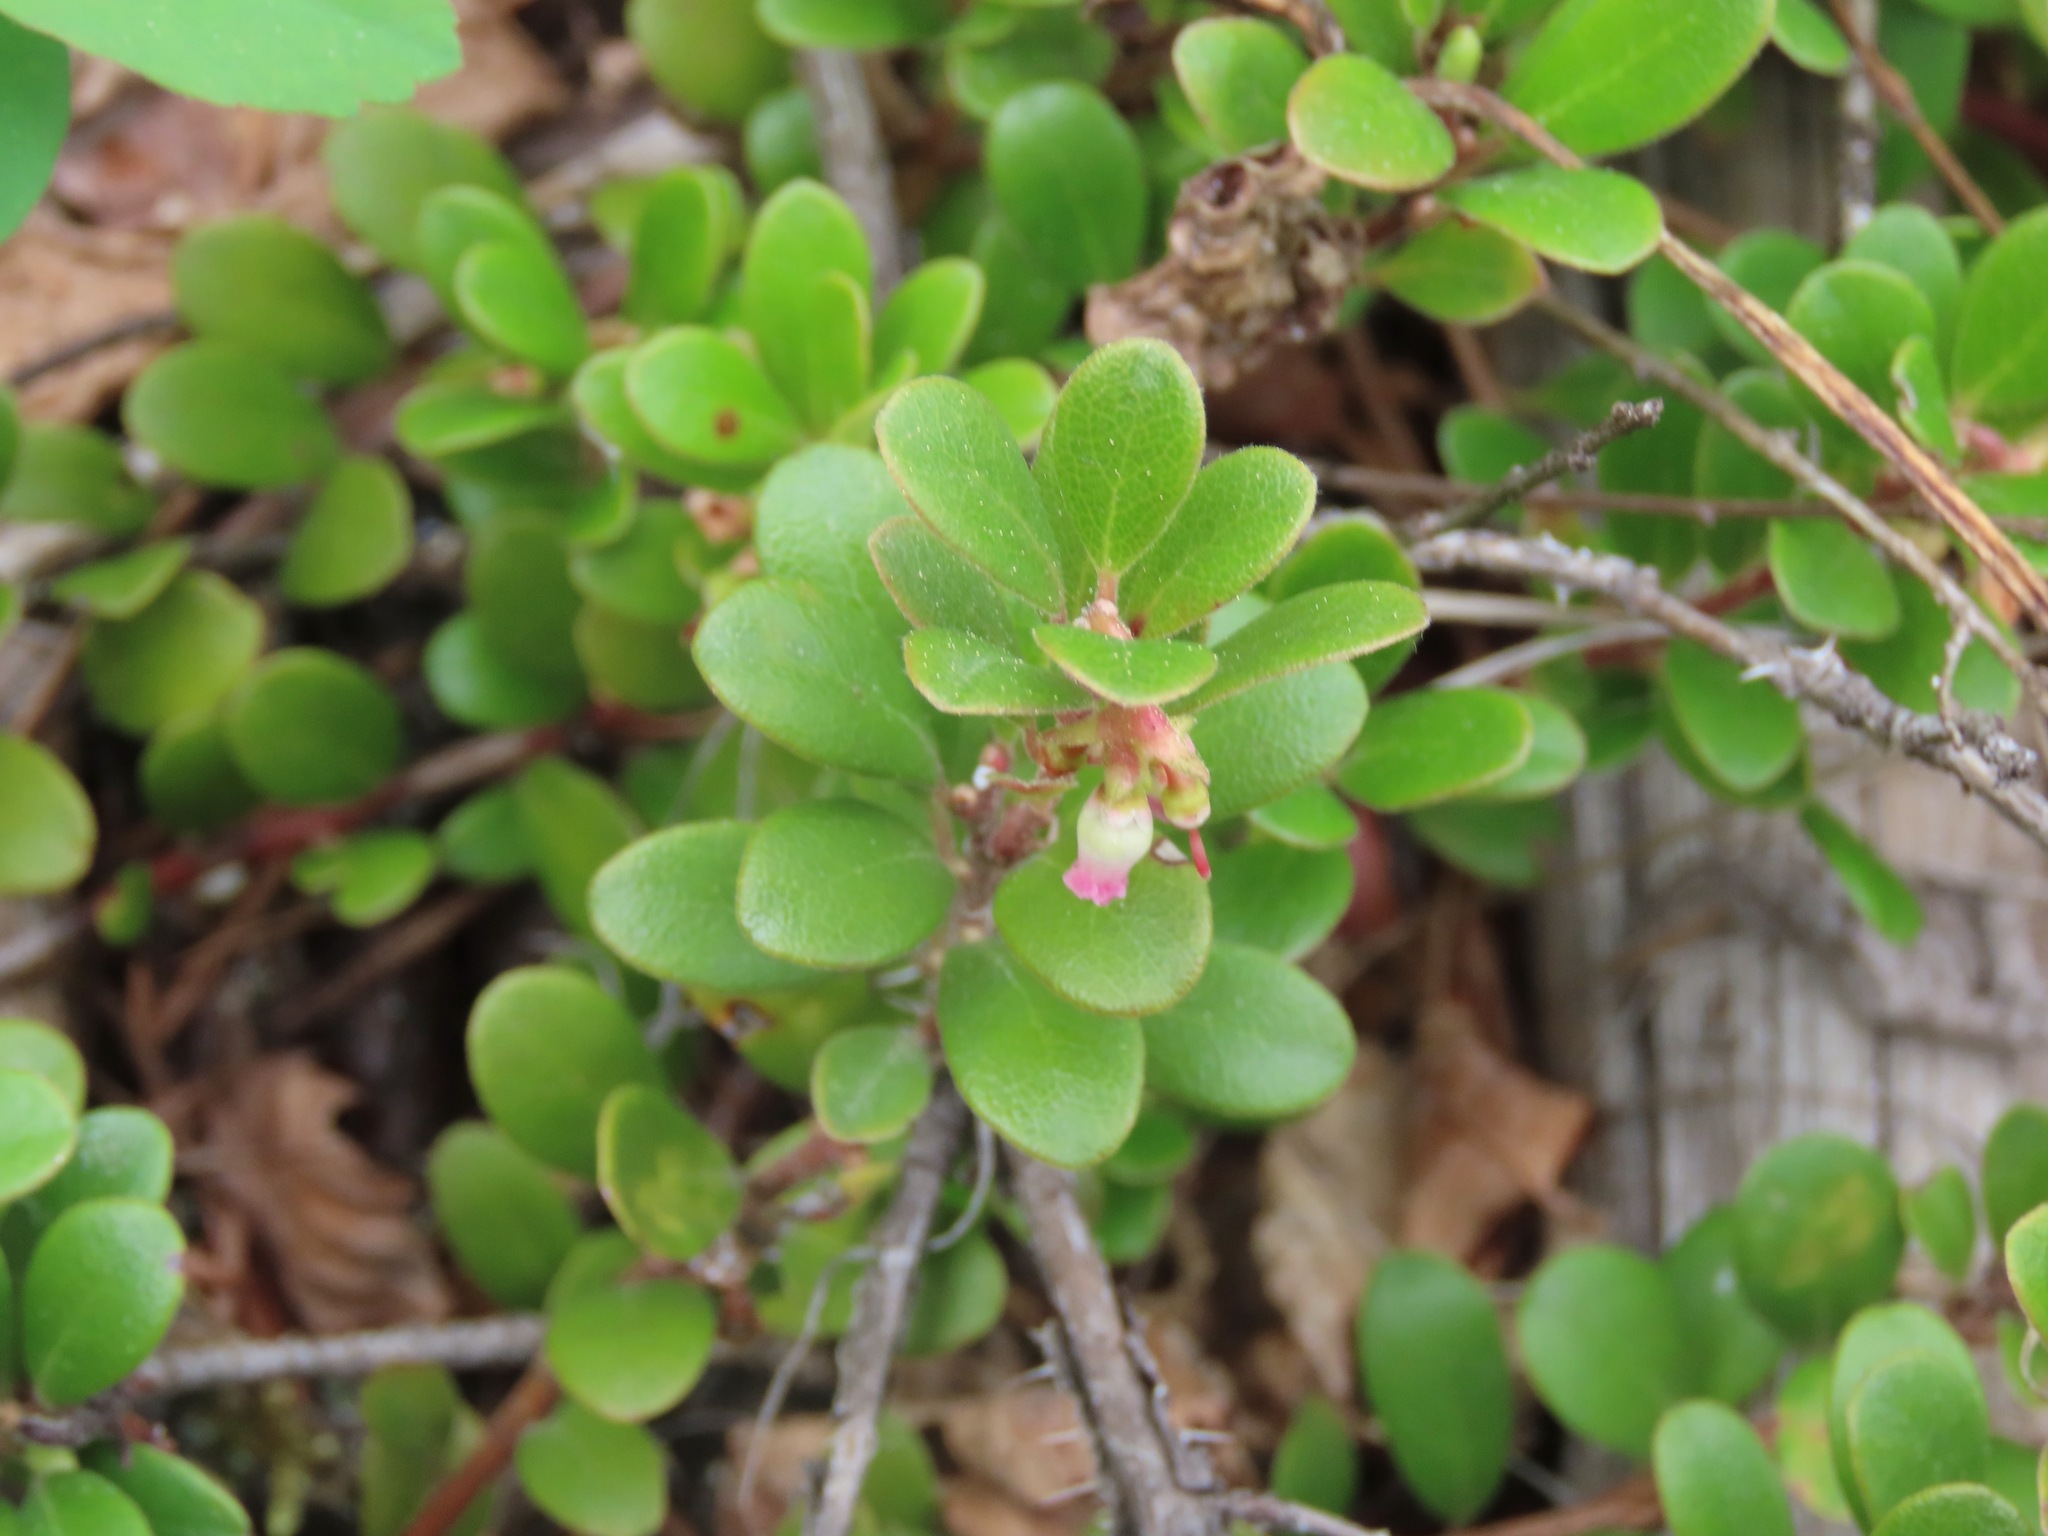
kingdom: Plantae
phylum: Tracheophyta
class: Magnoliopsida
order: Ericales
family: Ericaceae
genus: Arctostaphylos
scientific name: Arctostaphylos uva-ursi
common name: Bearberry
